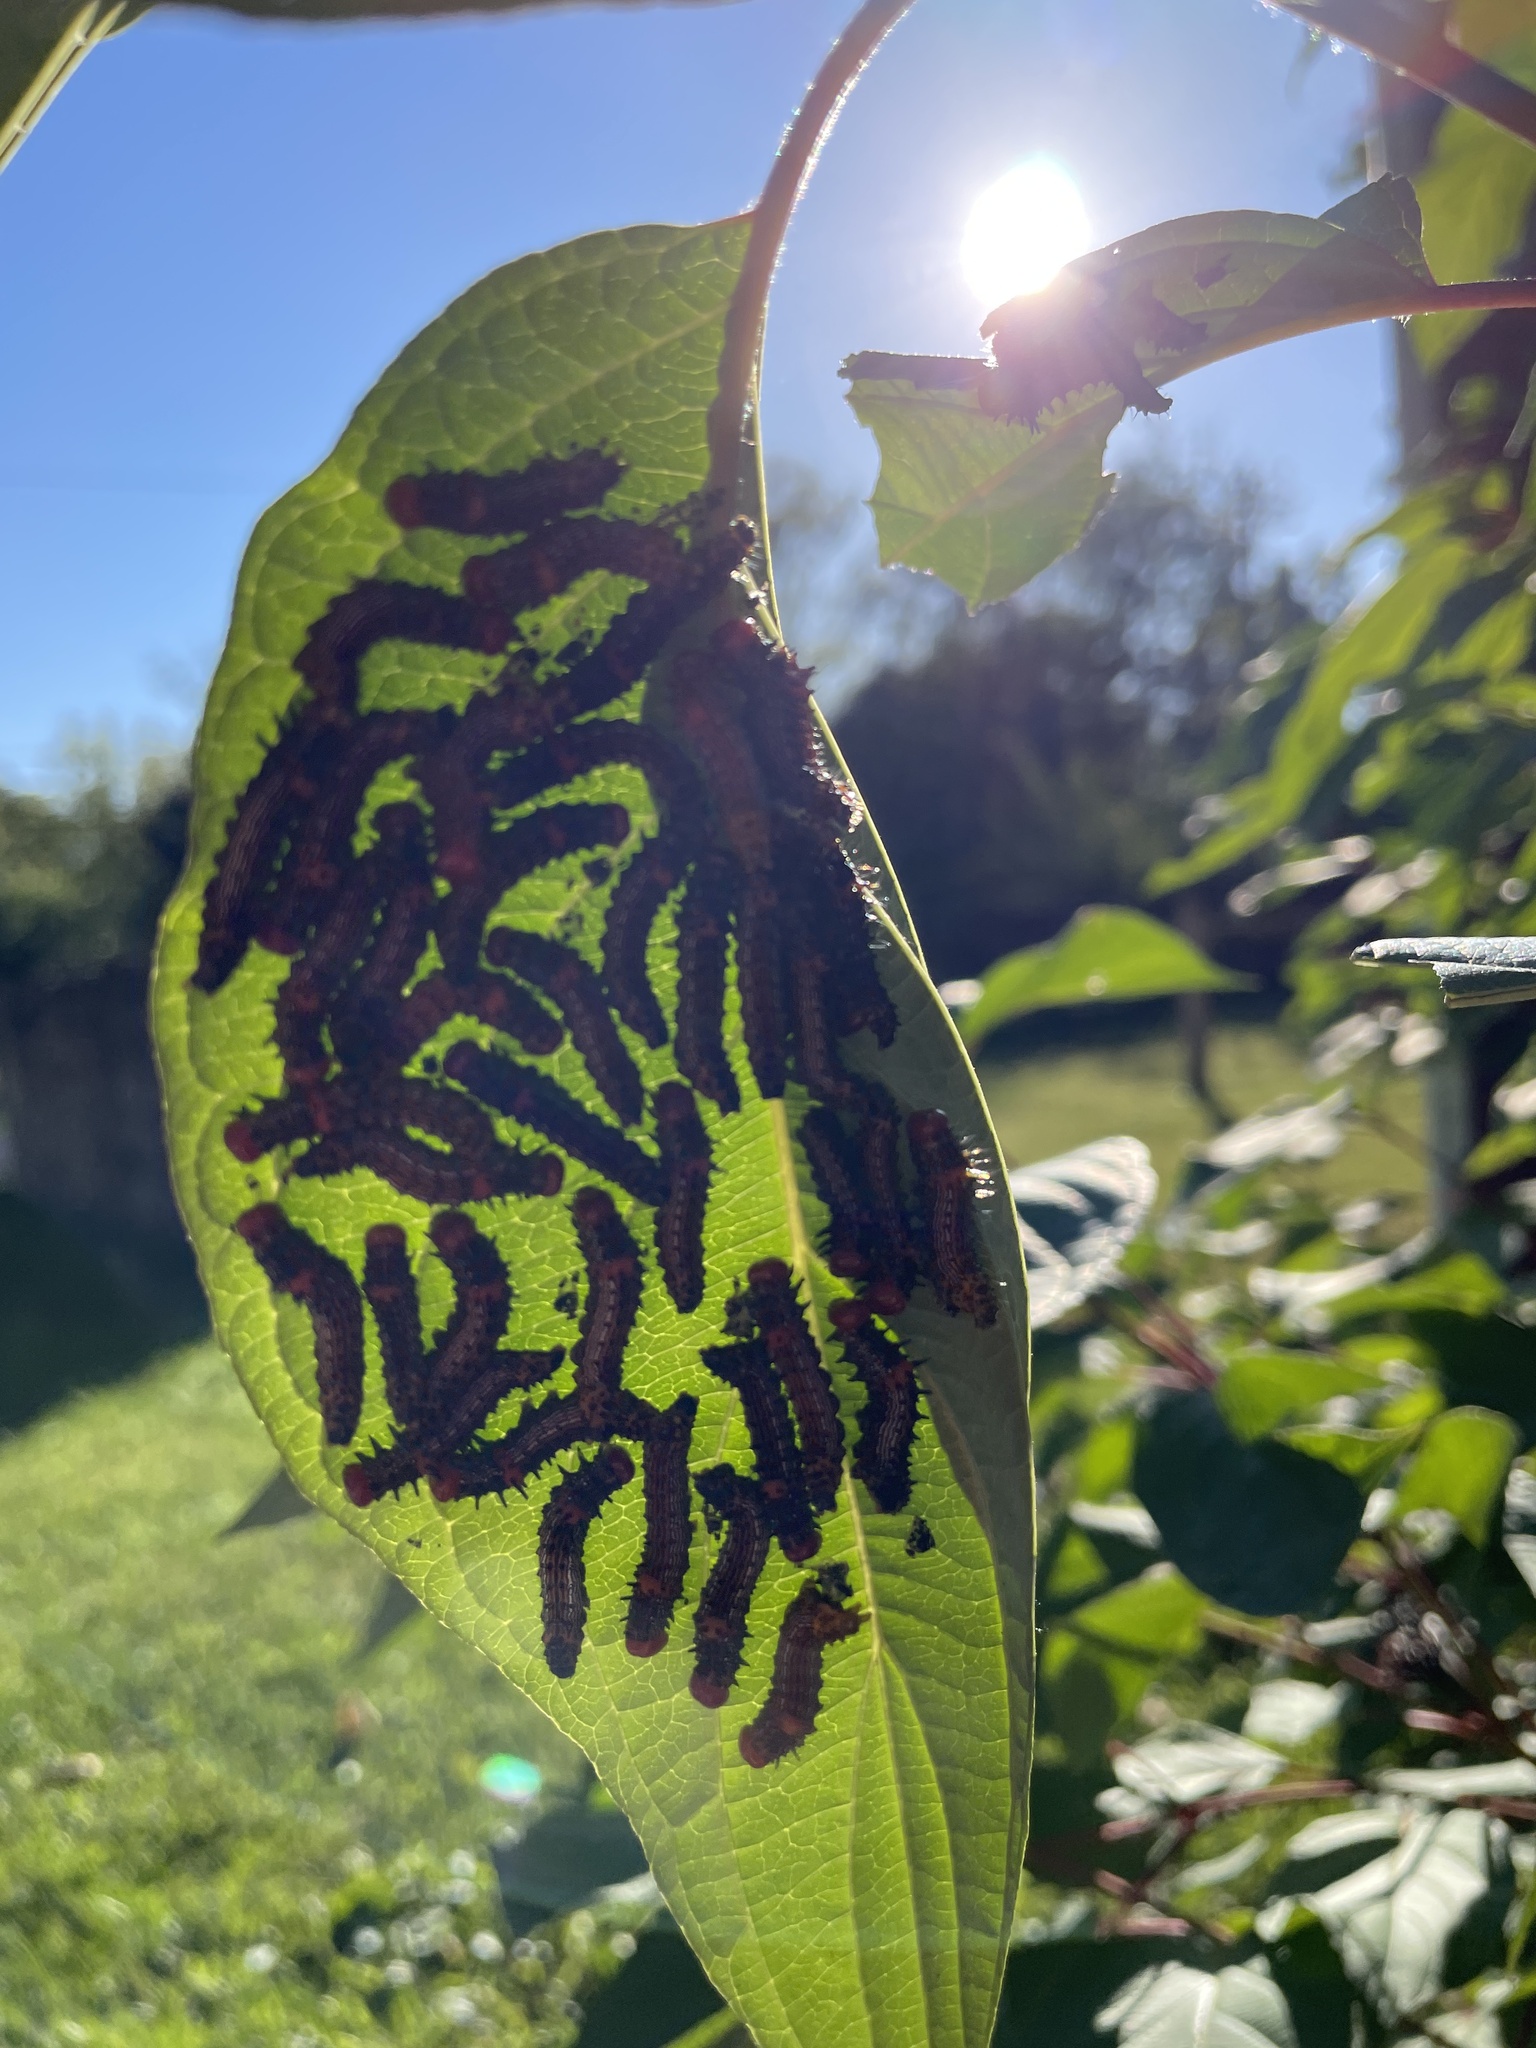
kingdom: Animalia
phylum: Arthropoda
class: Insecta
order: Lepidoptera
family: Notodontidae
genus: Schizura
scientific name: Schizura
